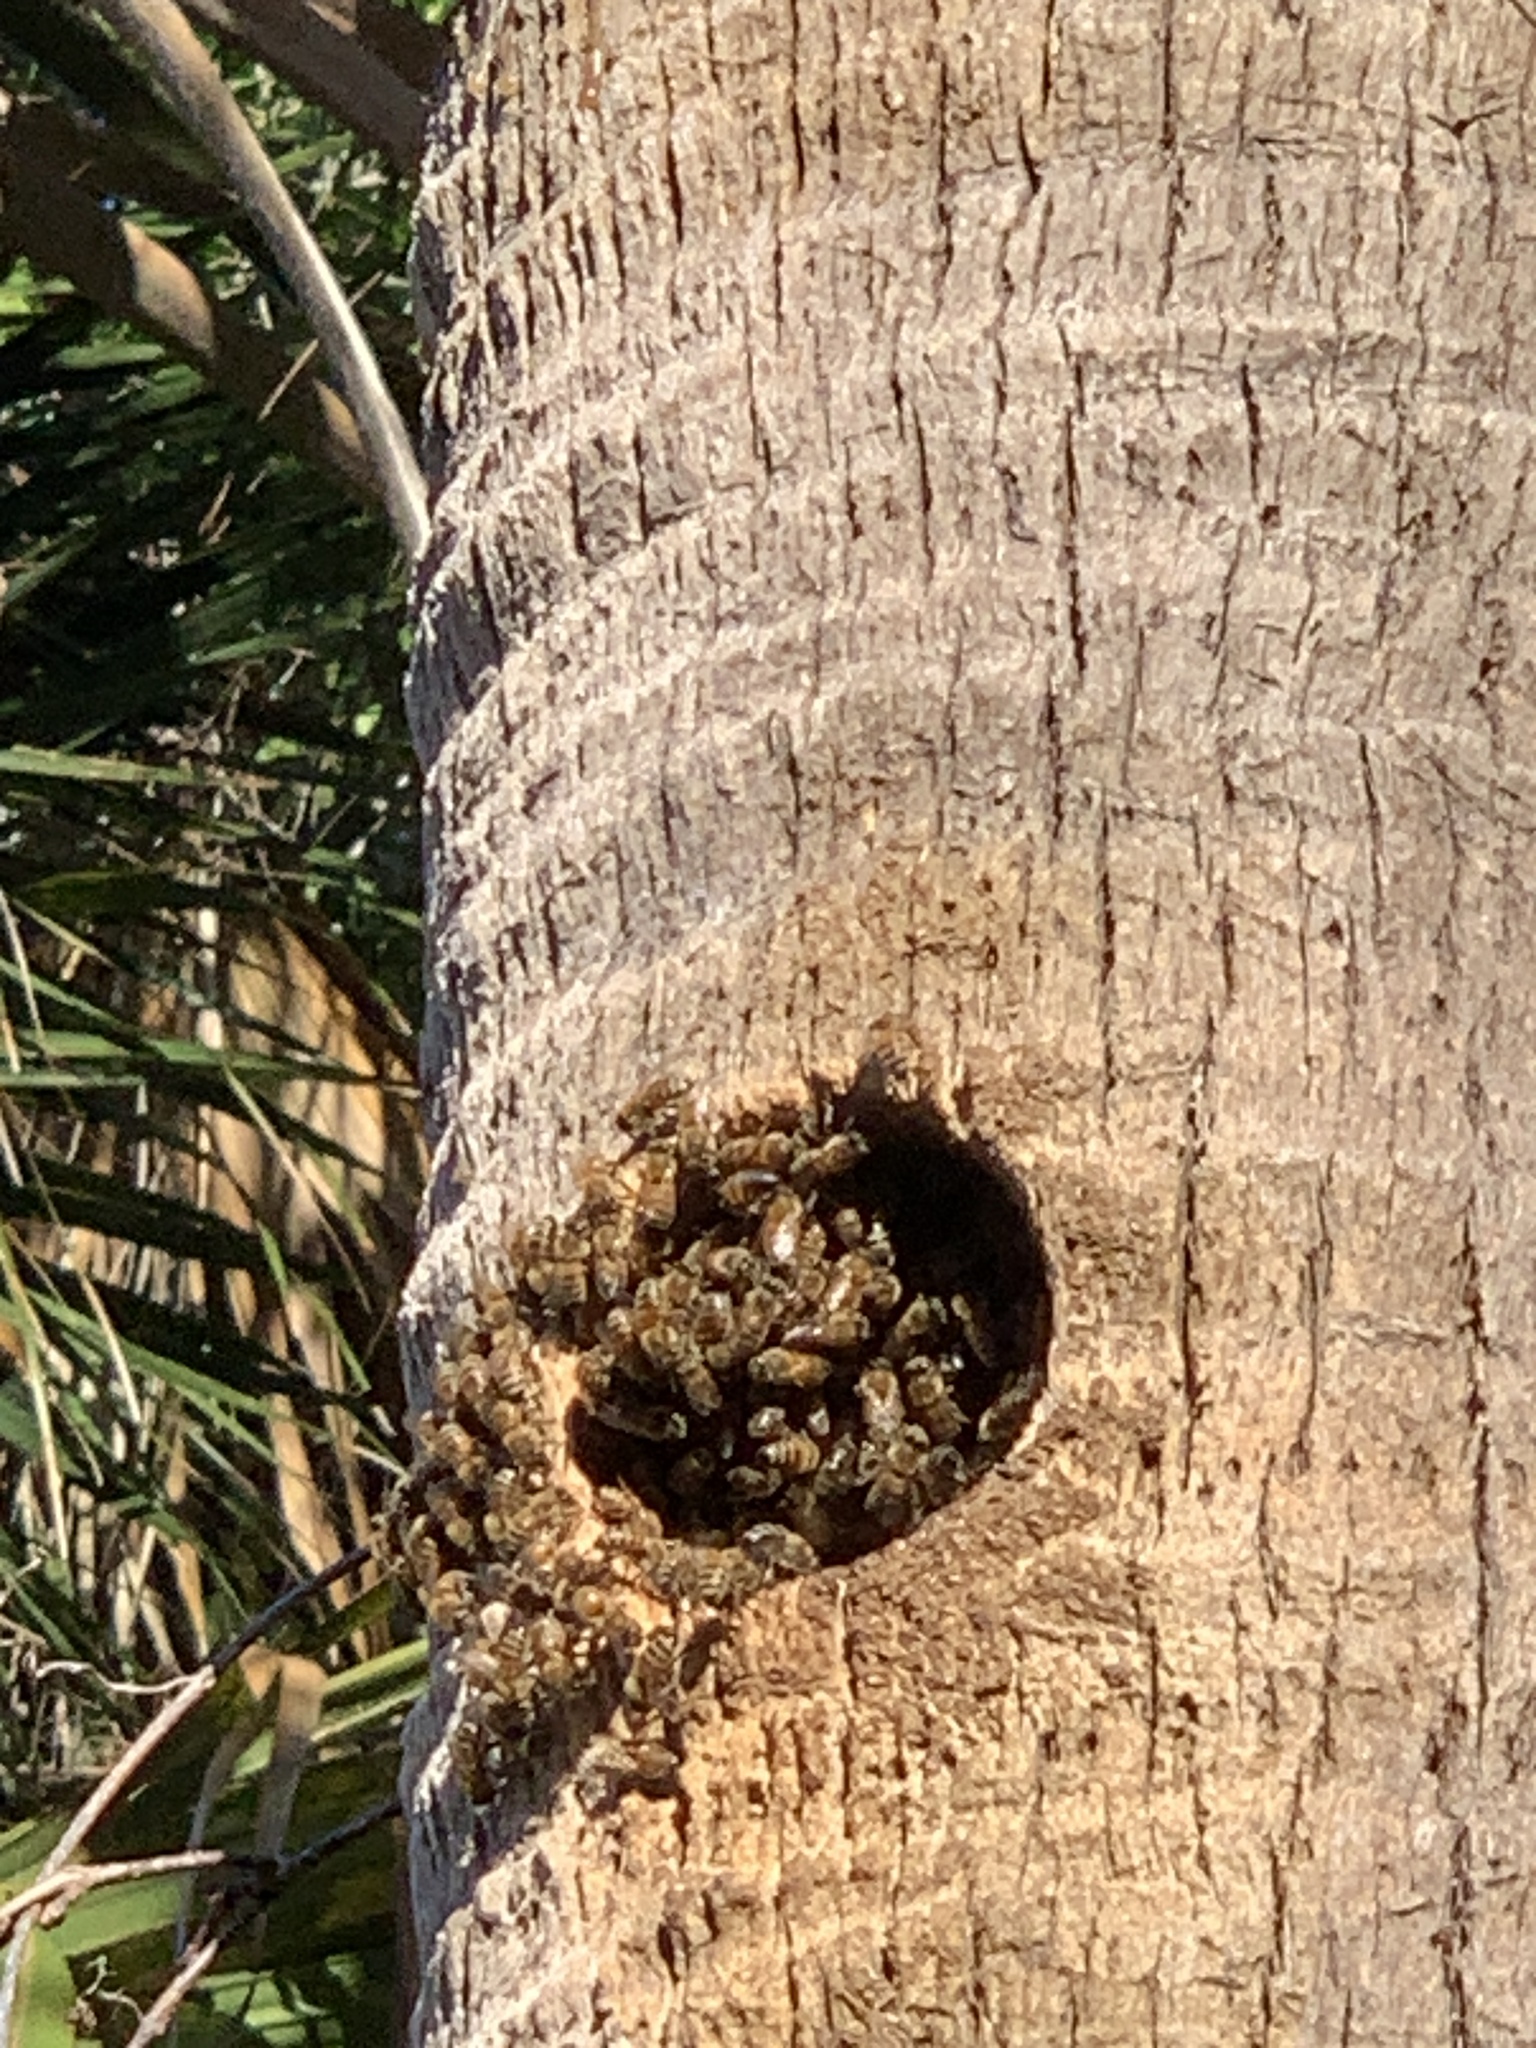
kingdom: Animalia
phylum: Arthropoda
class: Insecta
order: Hymenoptera
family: Apidae
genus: Apis
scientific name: Apis mellifera
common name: Honey bee
